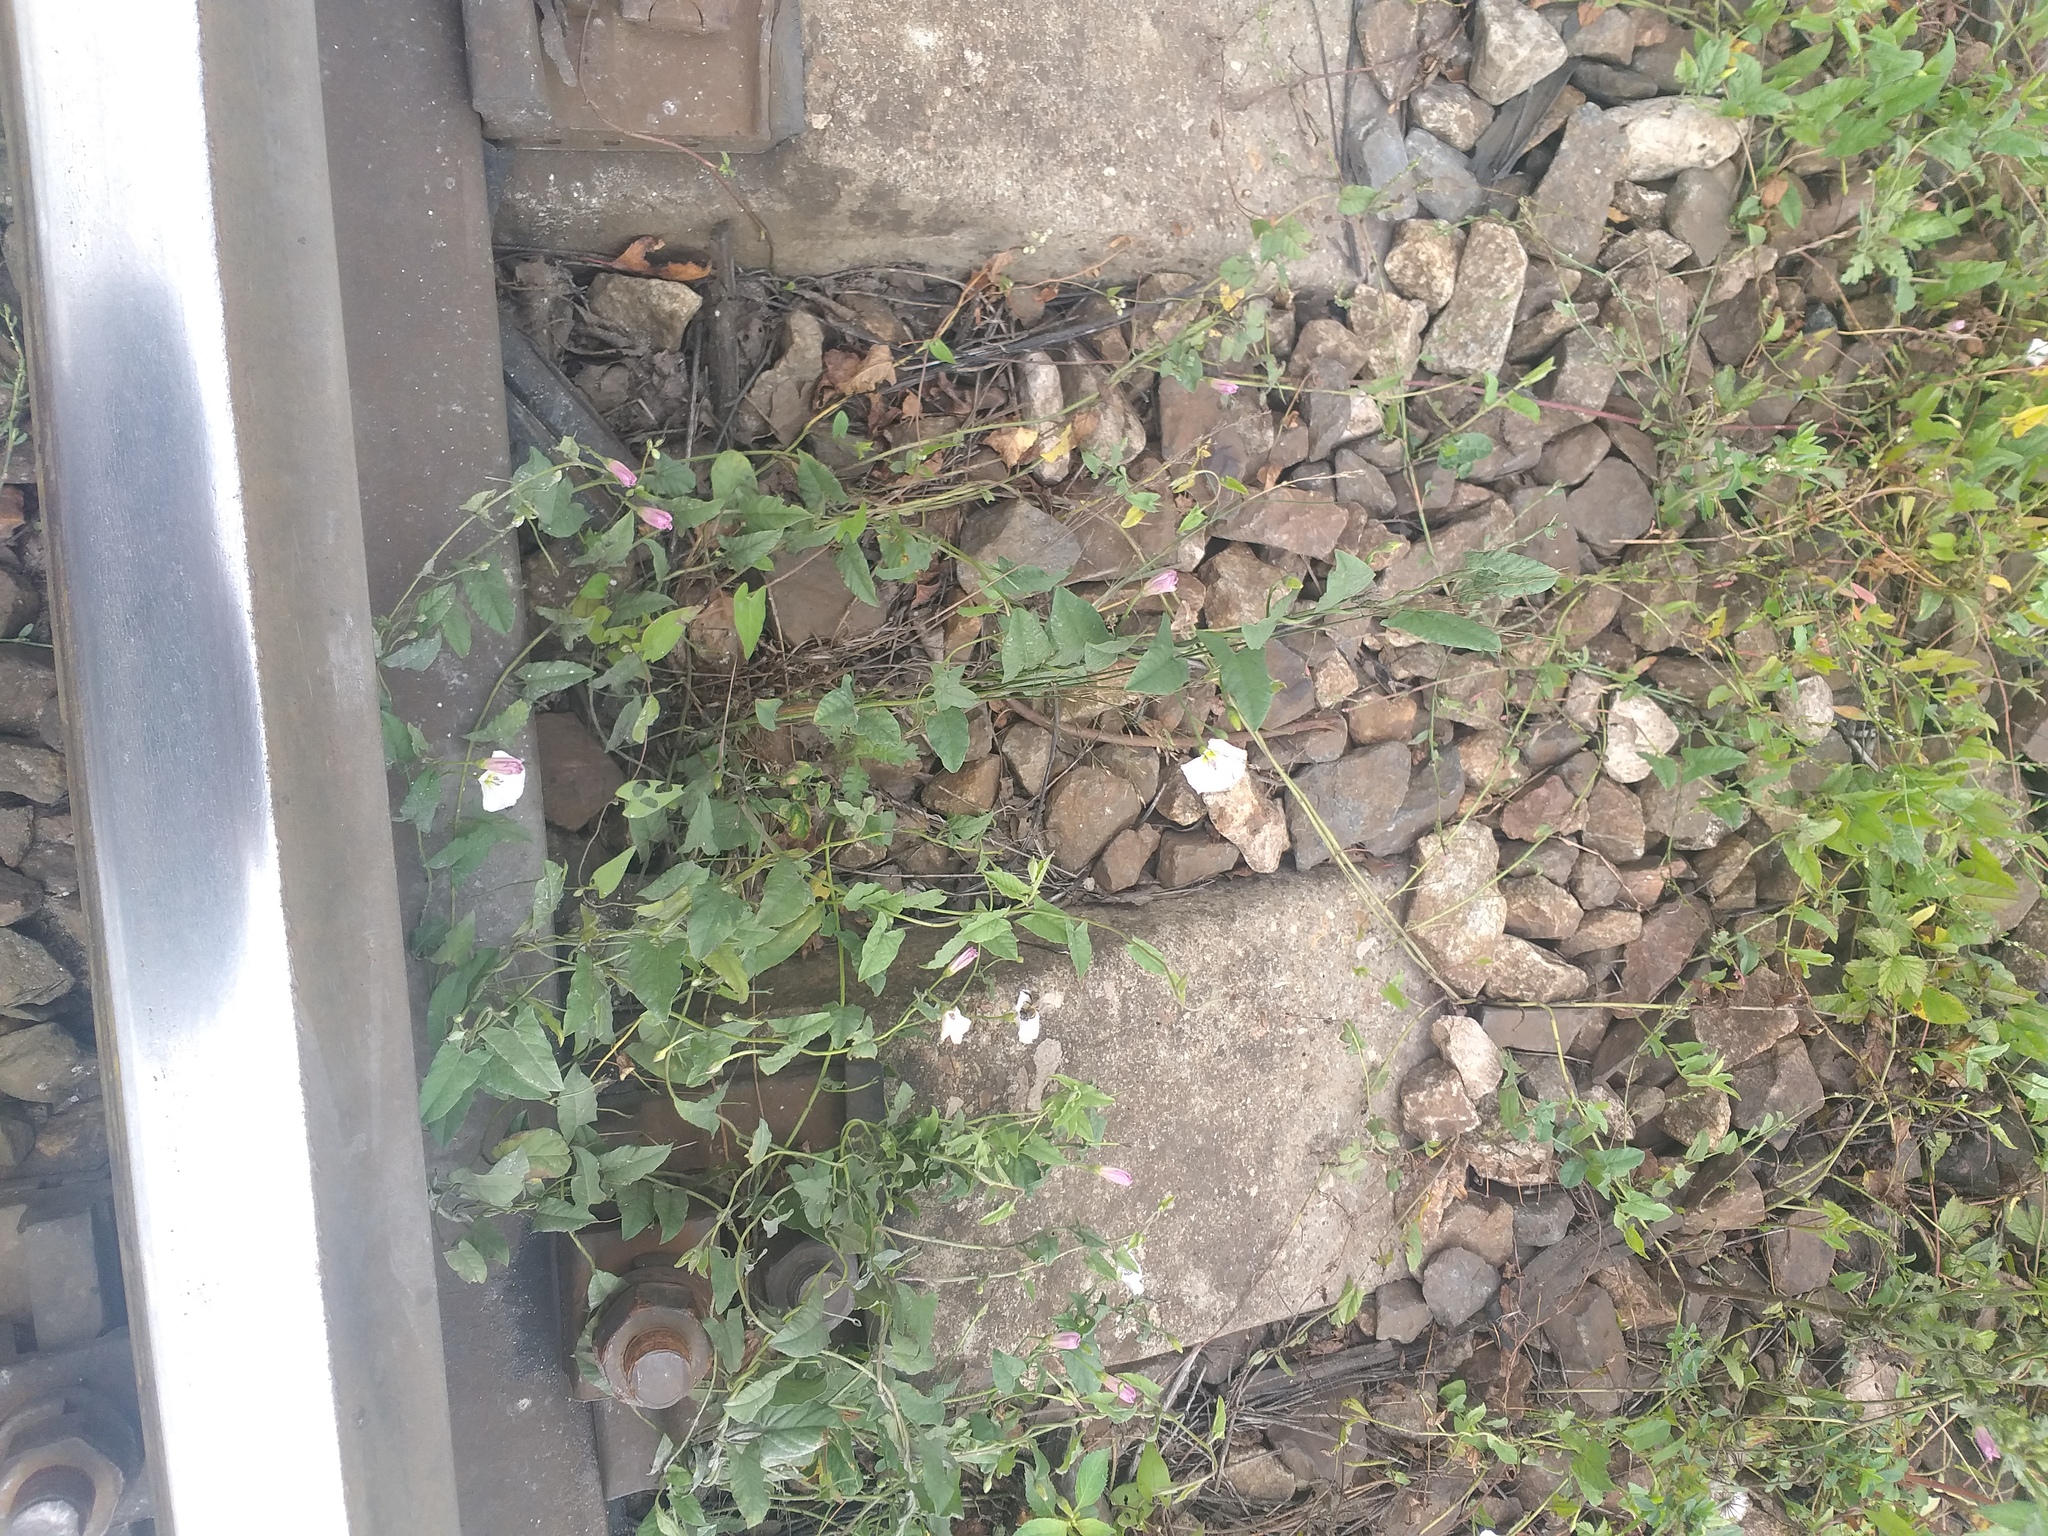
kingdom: Plantae
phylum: Tracheophyta
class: Magnoliopsida
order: Solanales
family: Convolvulaceae
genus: Convolvulus
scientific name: Convolvulus arvensis
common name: Field bindweed
